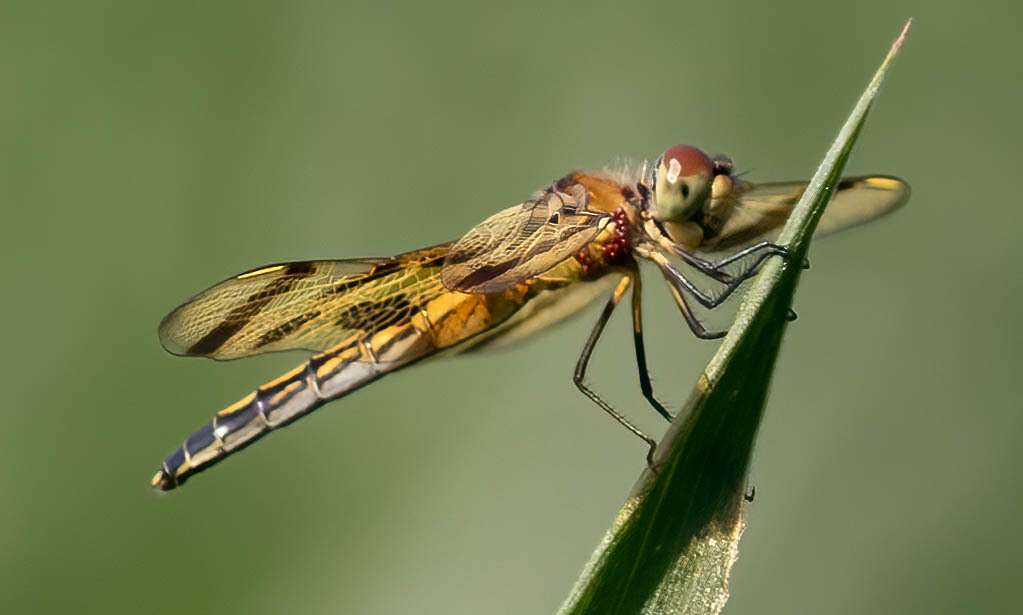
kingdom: Animalia
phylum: Arthropoda
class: Insecta
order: Odonata
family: Libellulidae
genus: Celithemis
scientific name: Celithemis eponina
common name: Halloween pennant
